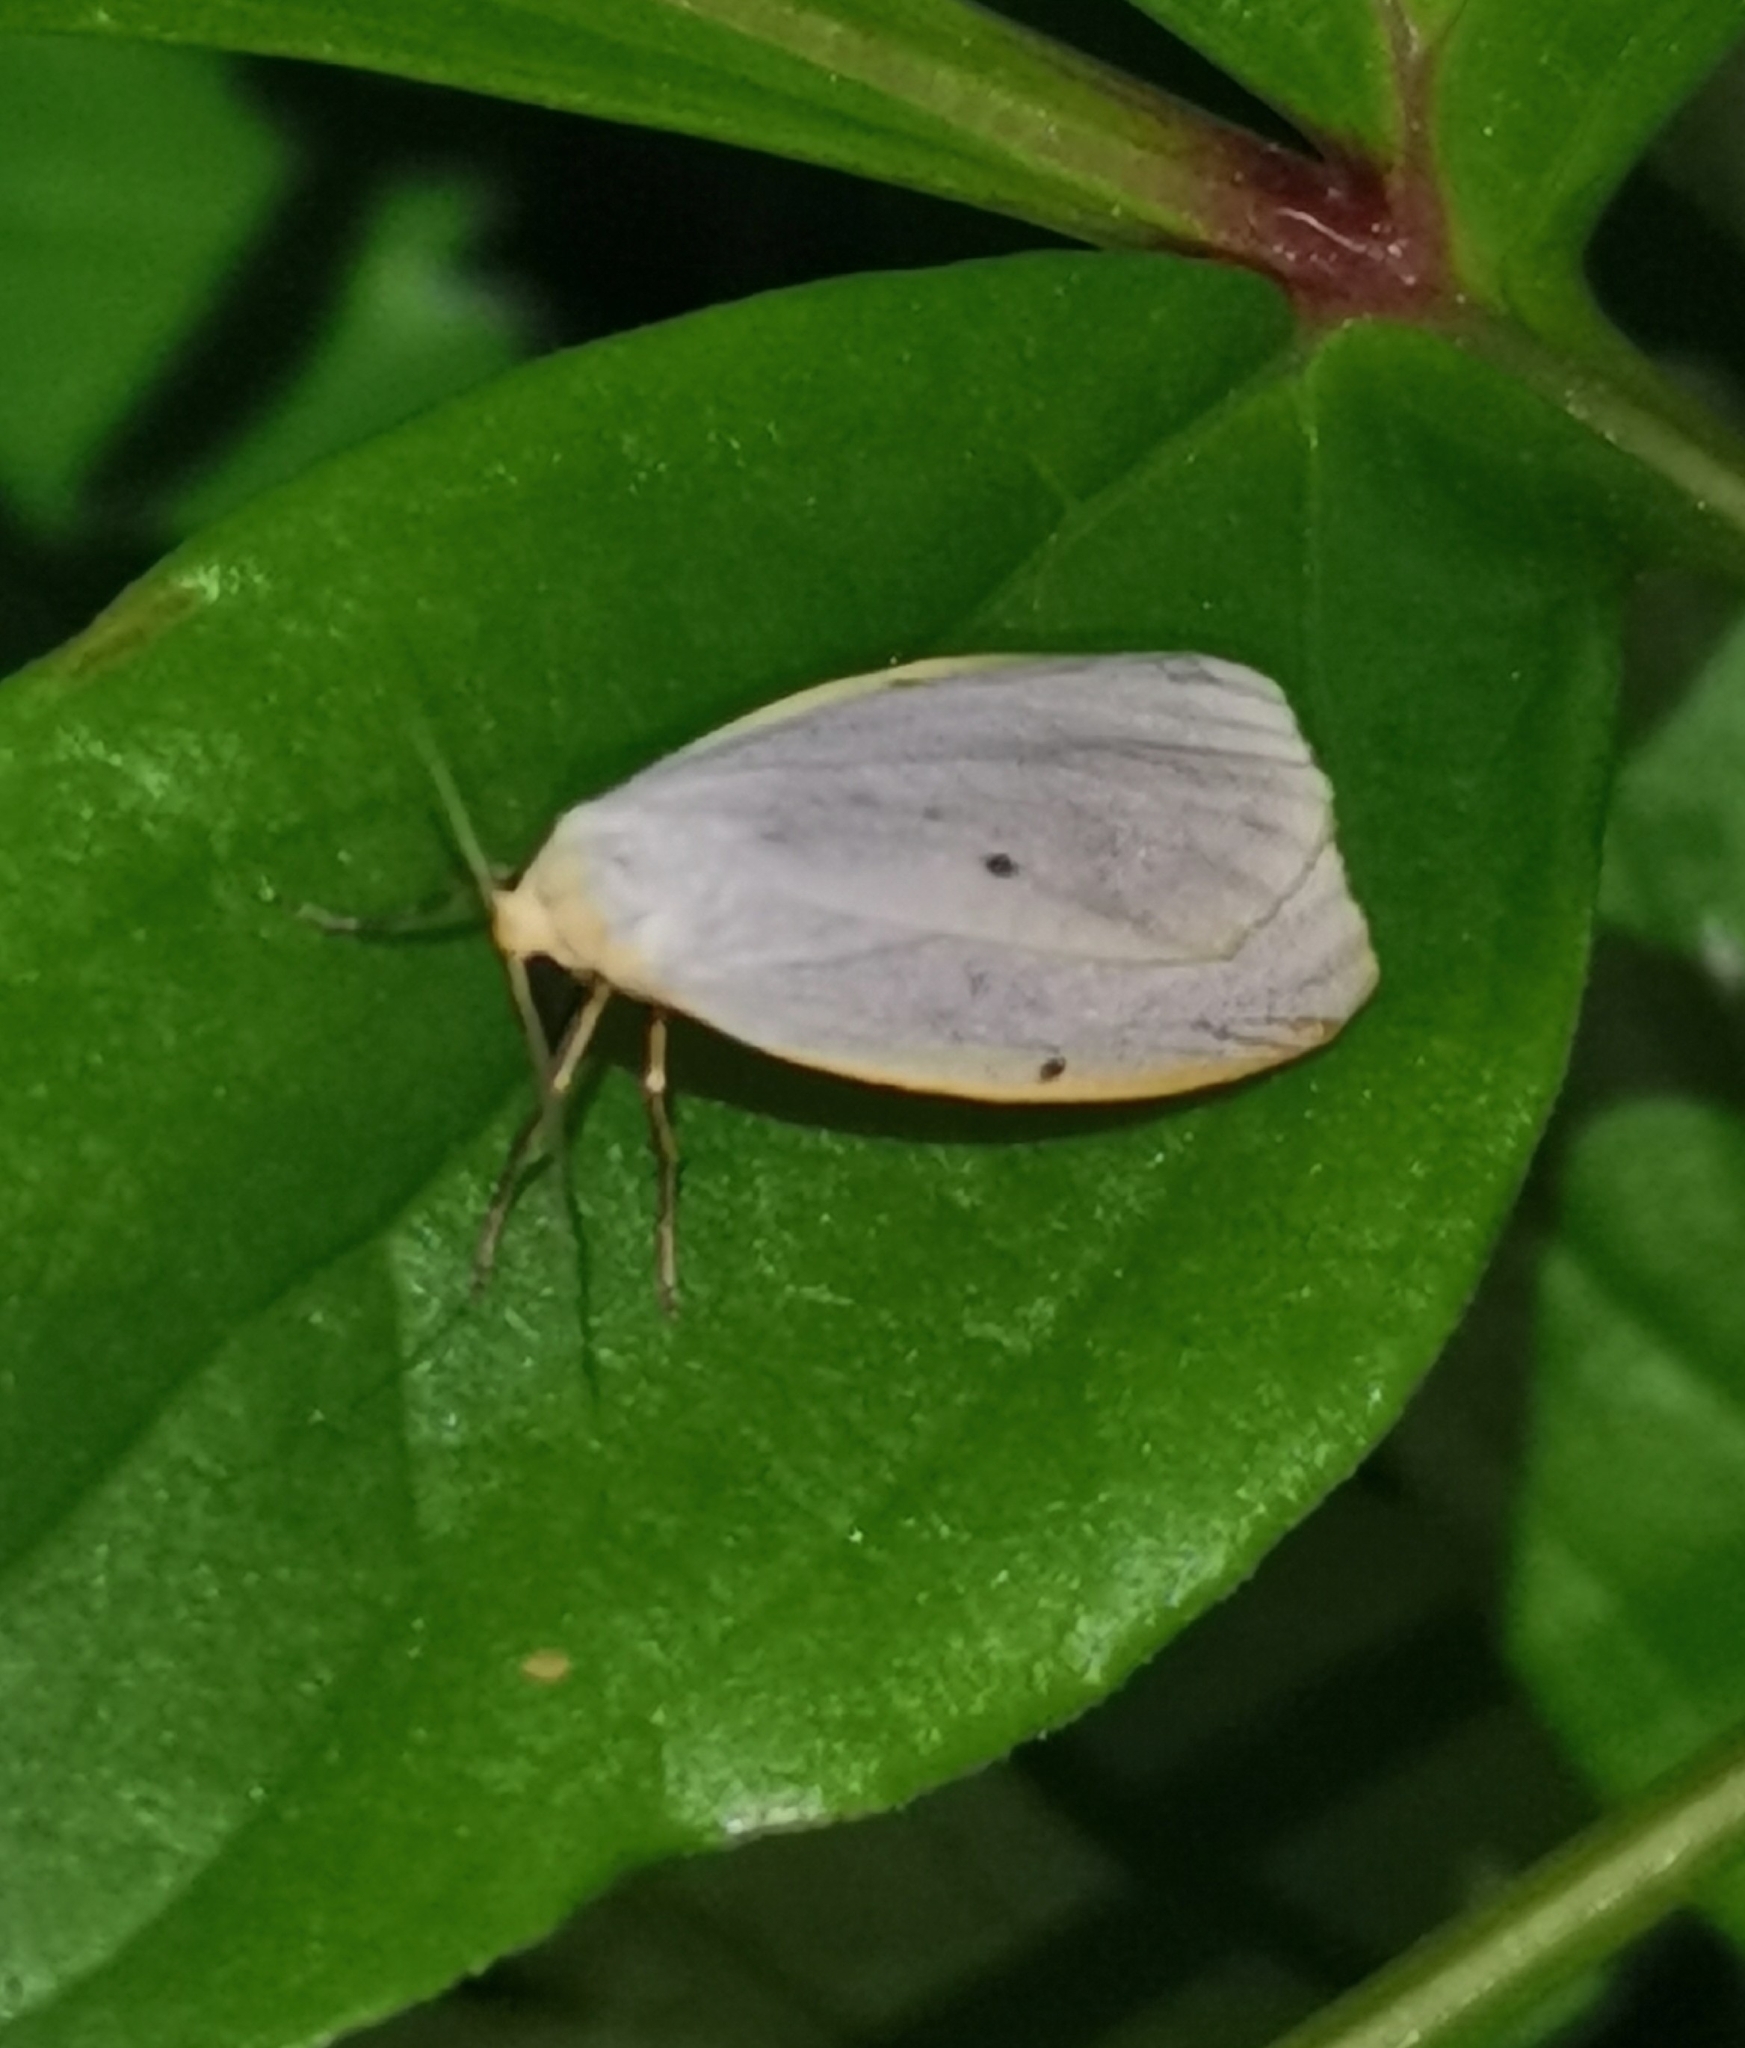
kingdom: Animalia
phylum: Arthropoda
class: Insecta
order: Lepidoptera
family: Erebidae
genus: Cybosia
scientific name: Cybosia mesomella
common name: Four-dotted footman
